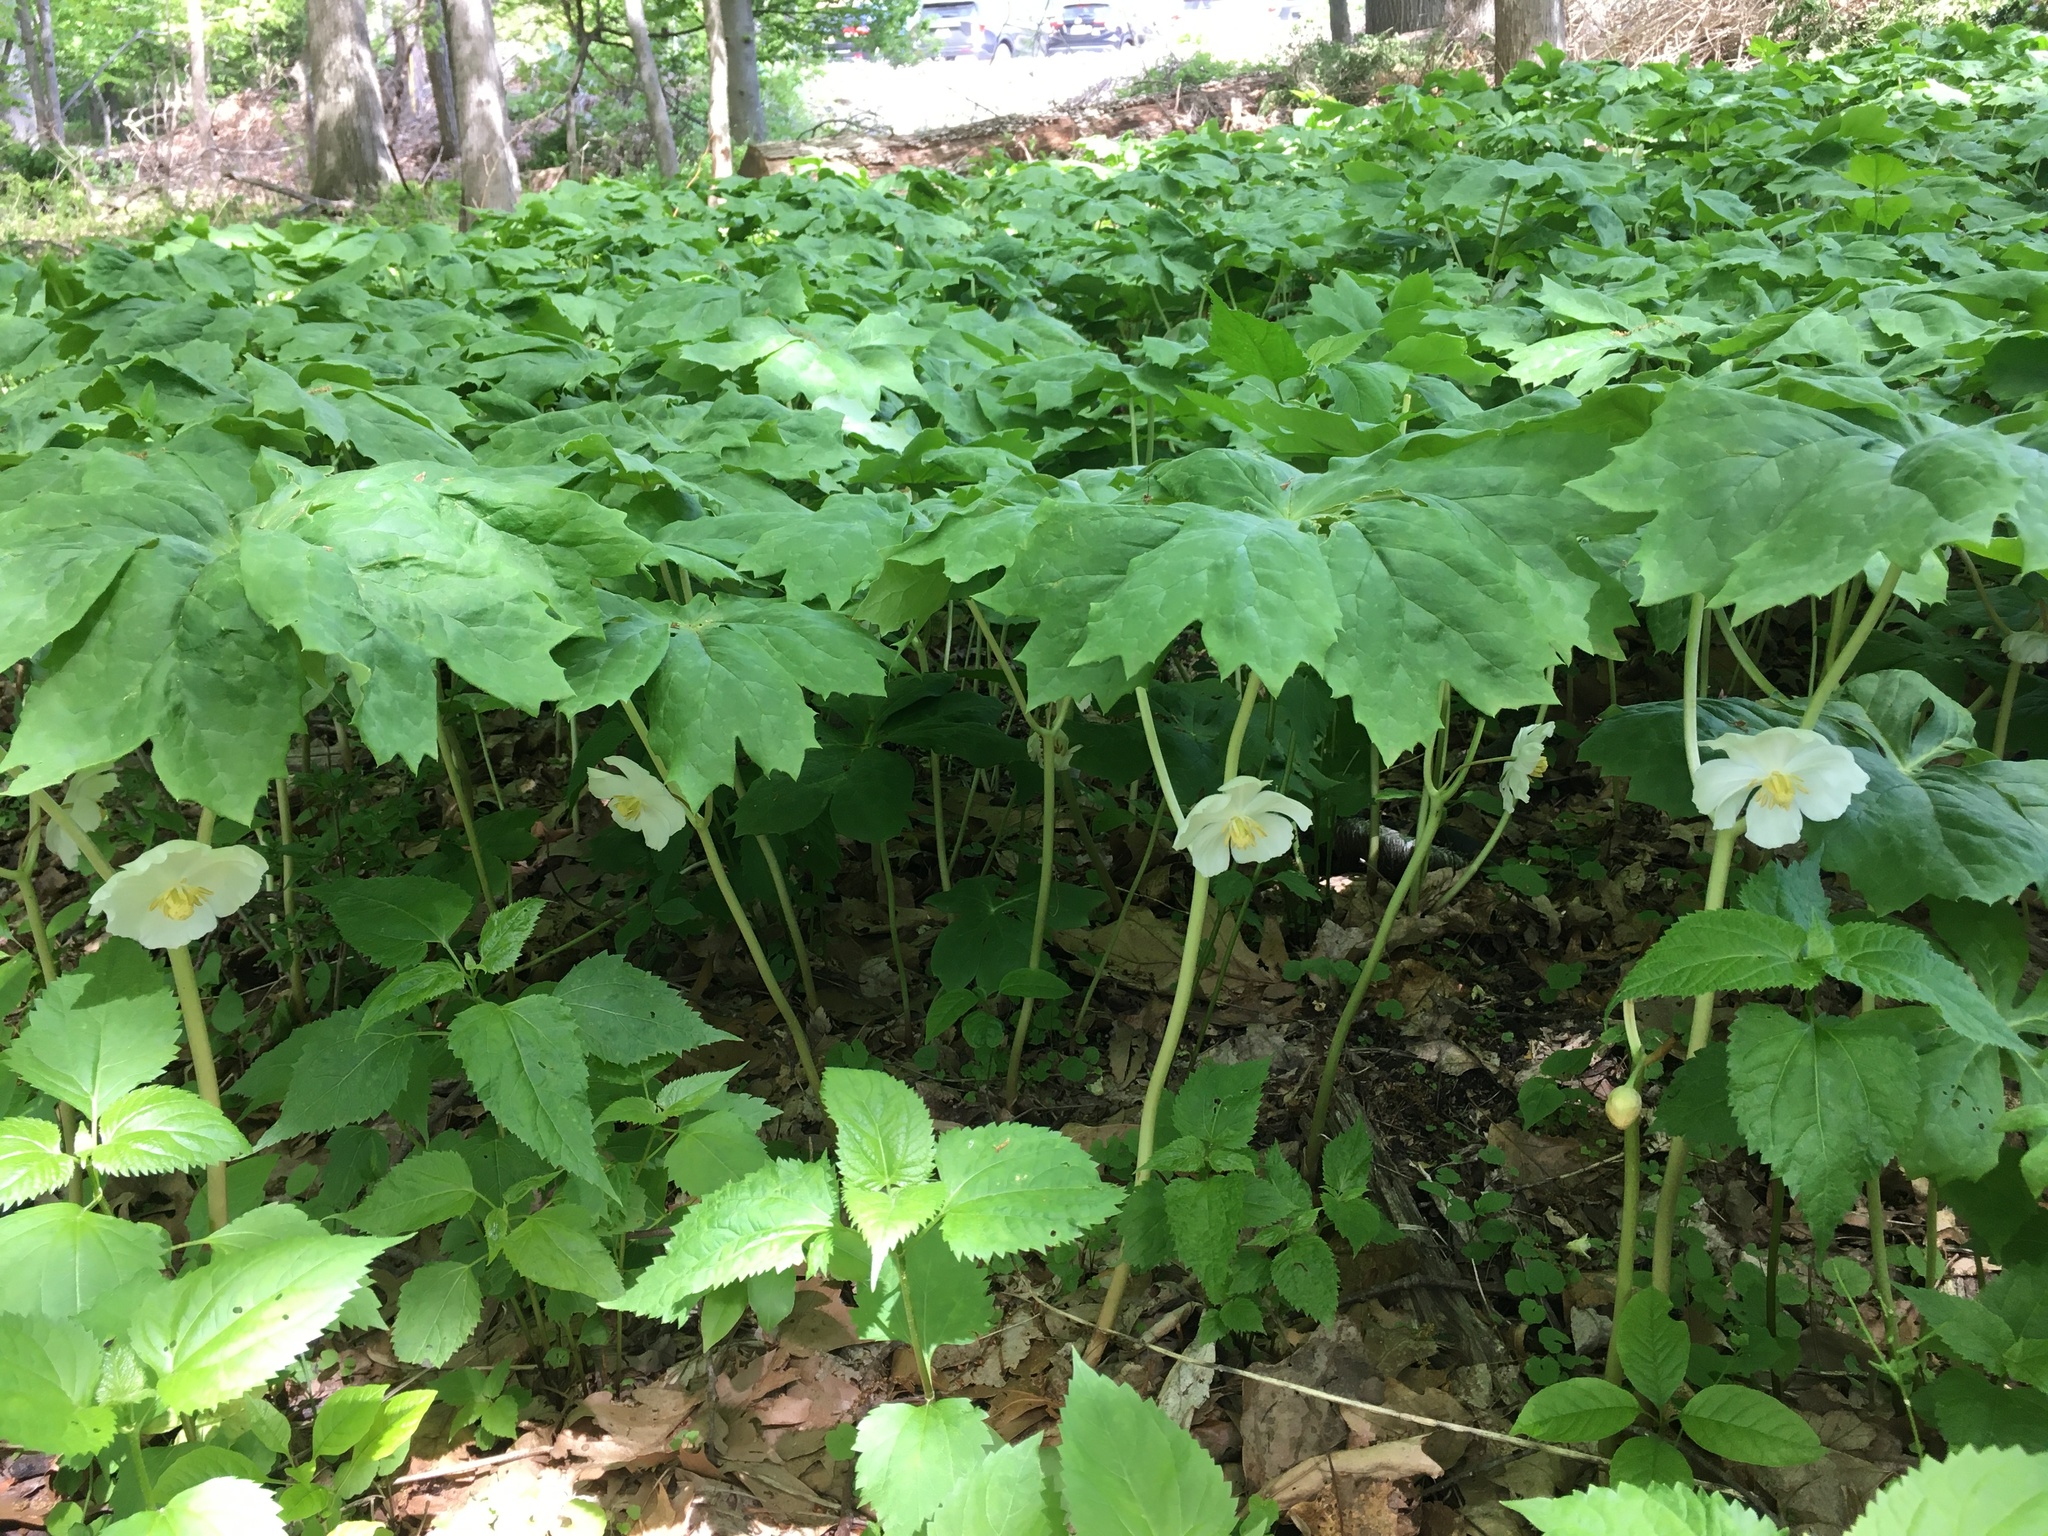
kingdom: Plantae
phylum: Tracheophyta
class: Magnoliopsida
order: Ranunculales
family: Berberidaceae
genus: Podophyllum
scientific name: Podophyllum peltatum
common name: Wild mandrake
